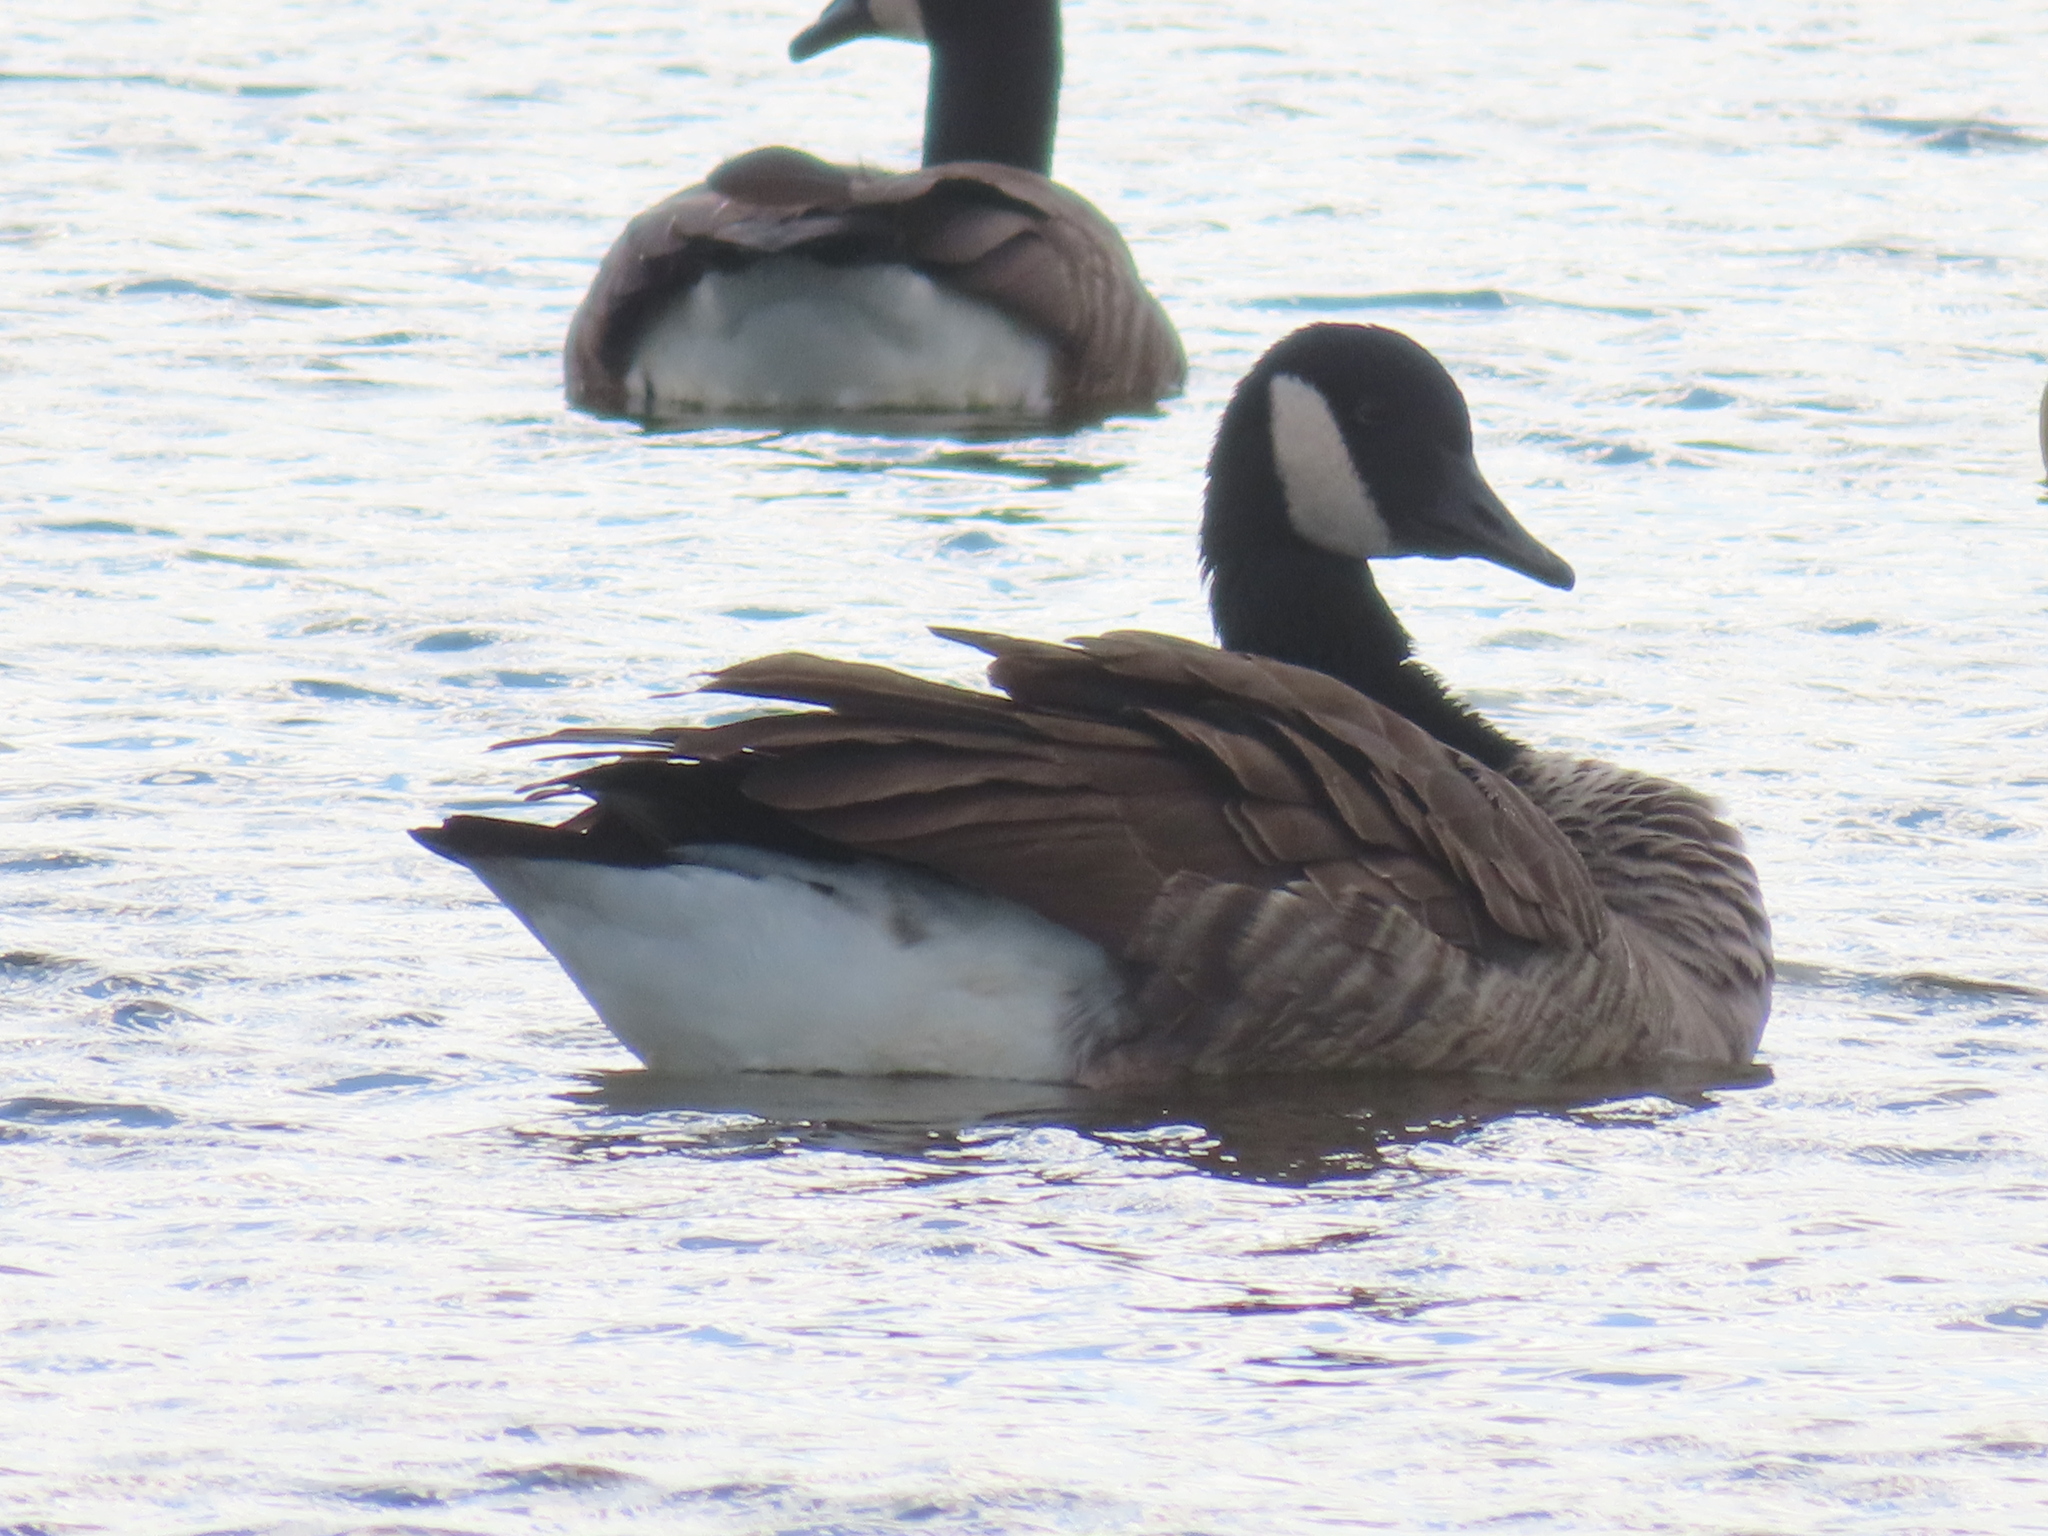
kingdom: Animalia
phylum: Chordata
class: Aves
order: Anseriformes
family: Anatidae
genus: Branta
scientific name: Branta canadensis
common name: Canada goose
